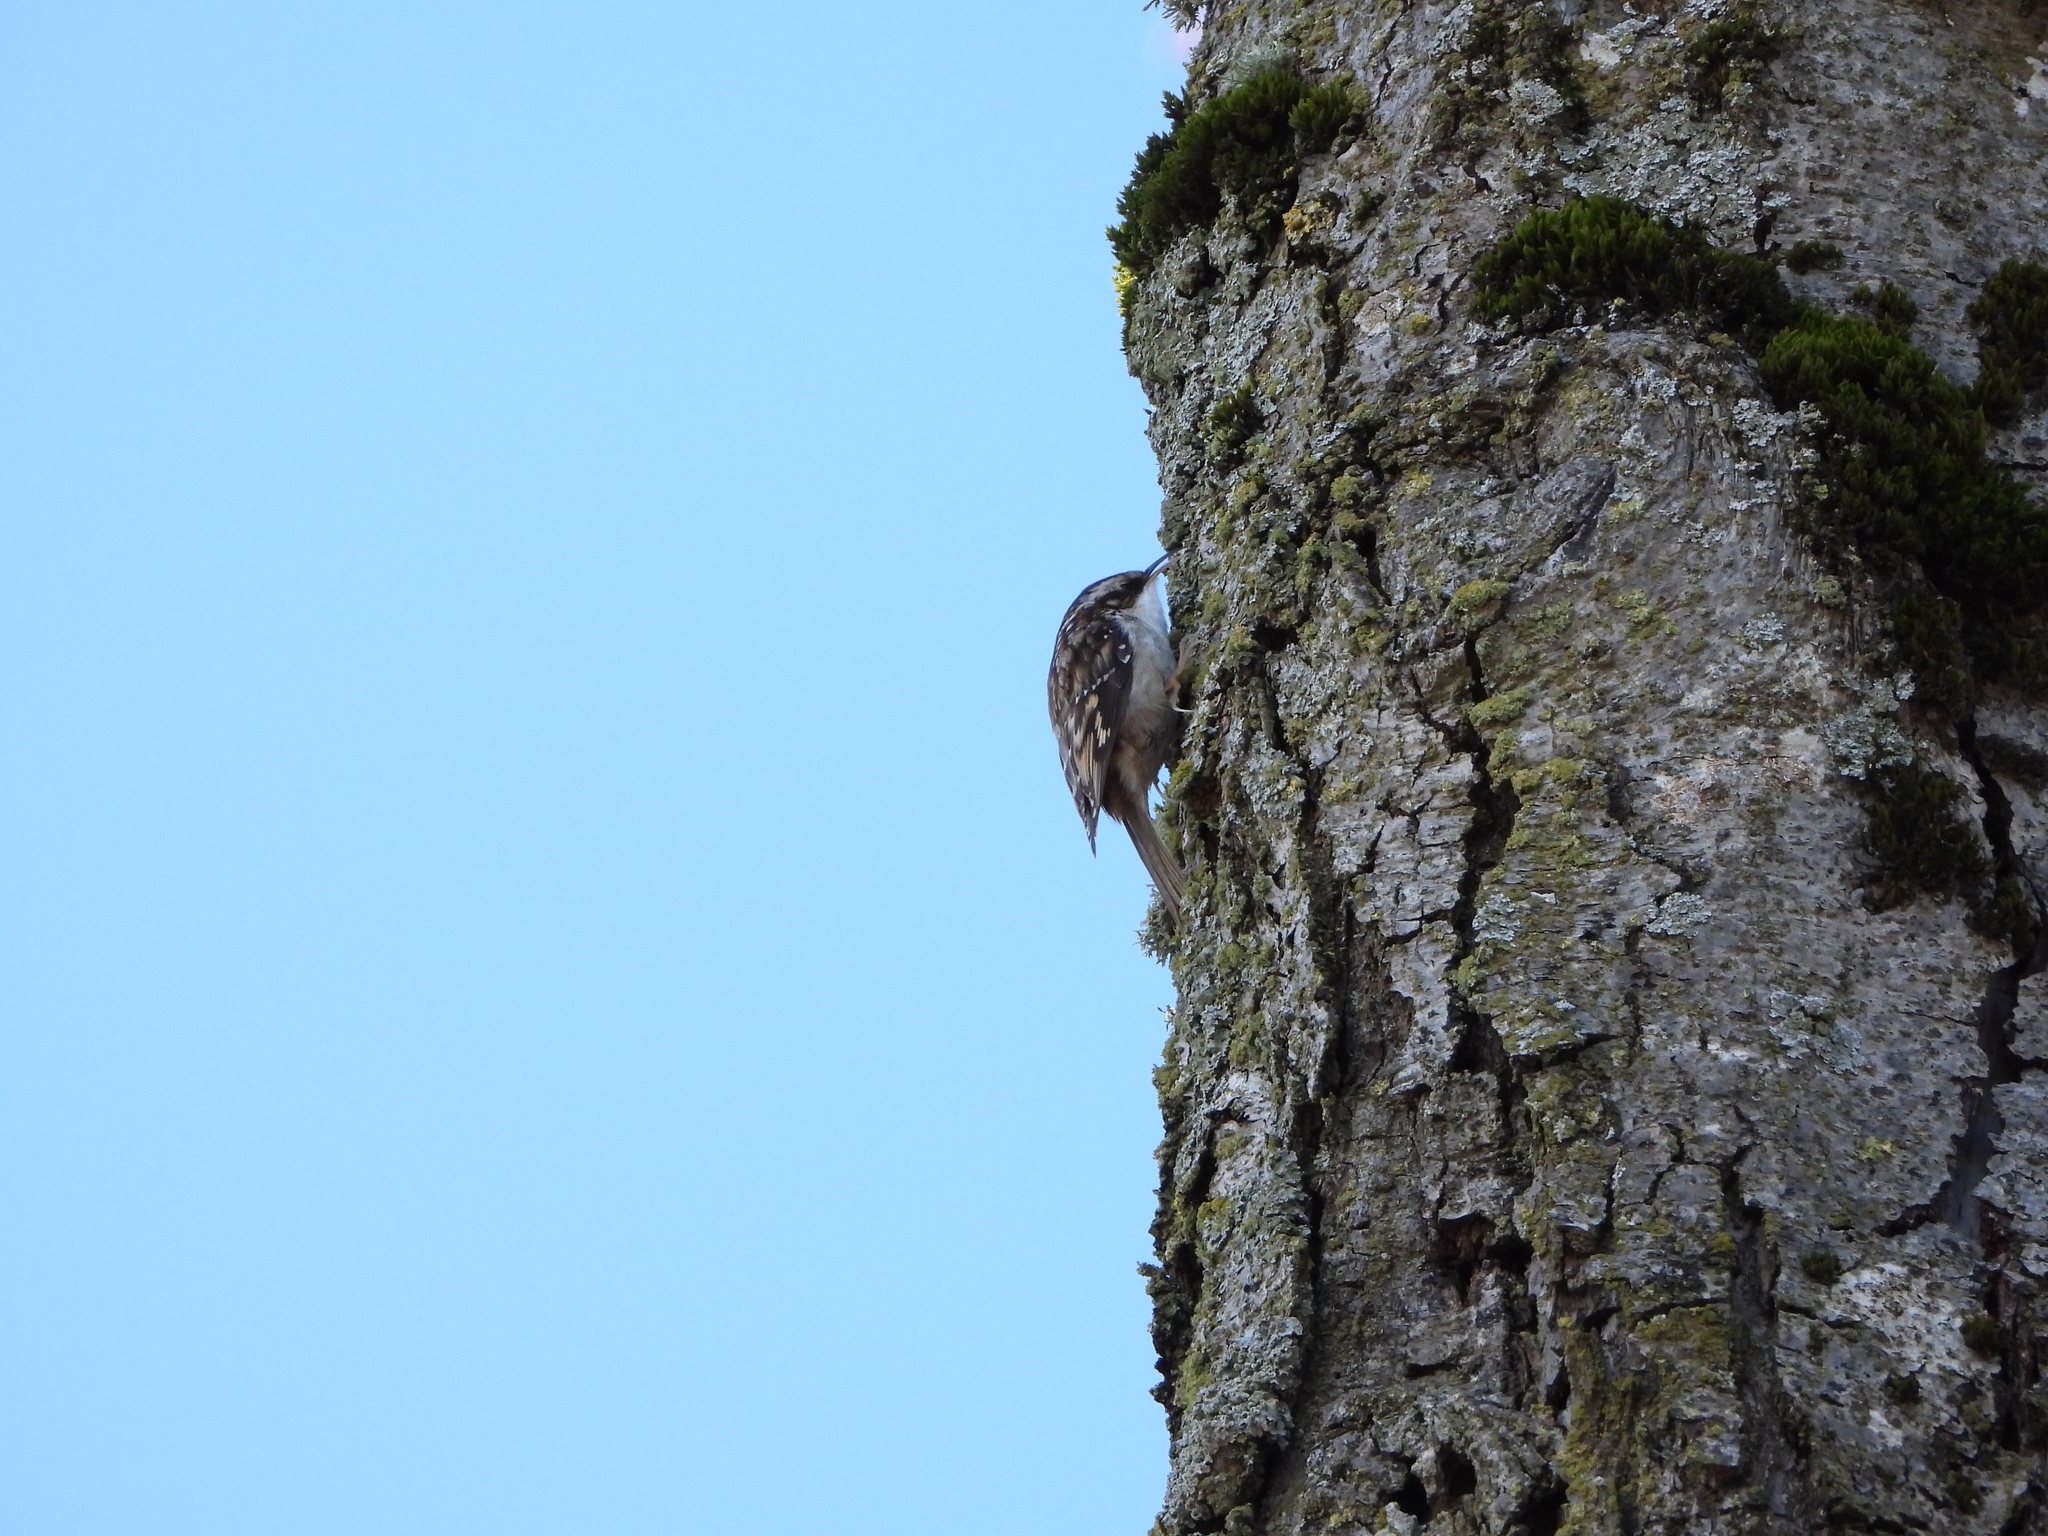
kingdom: Animalia
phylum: Chordata
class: Aves
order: Passeriformes
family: Certhiidae
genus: Certhia
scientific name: Certhia americana
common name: Brown creeper
